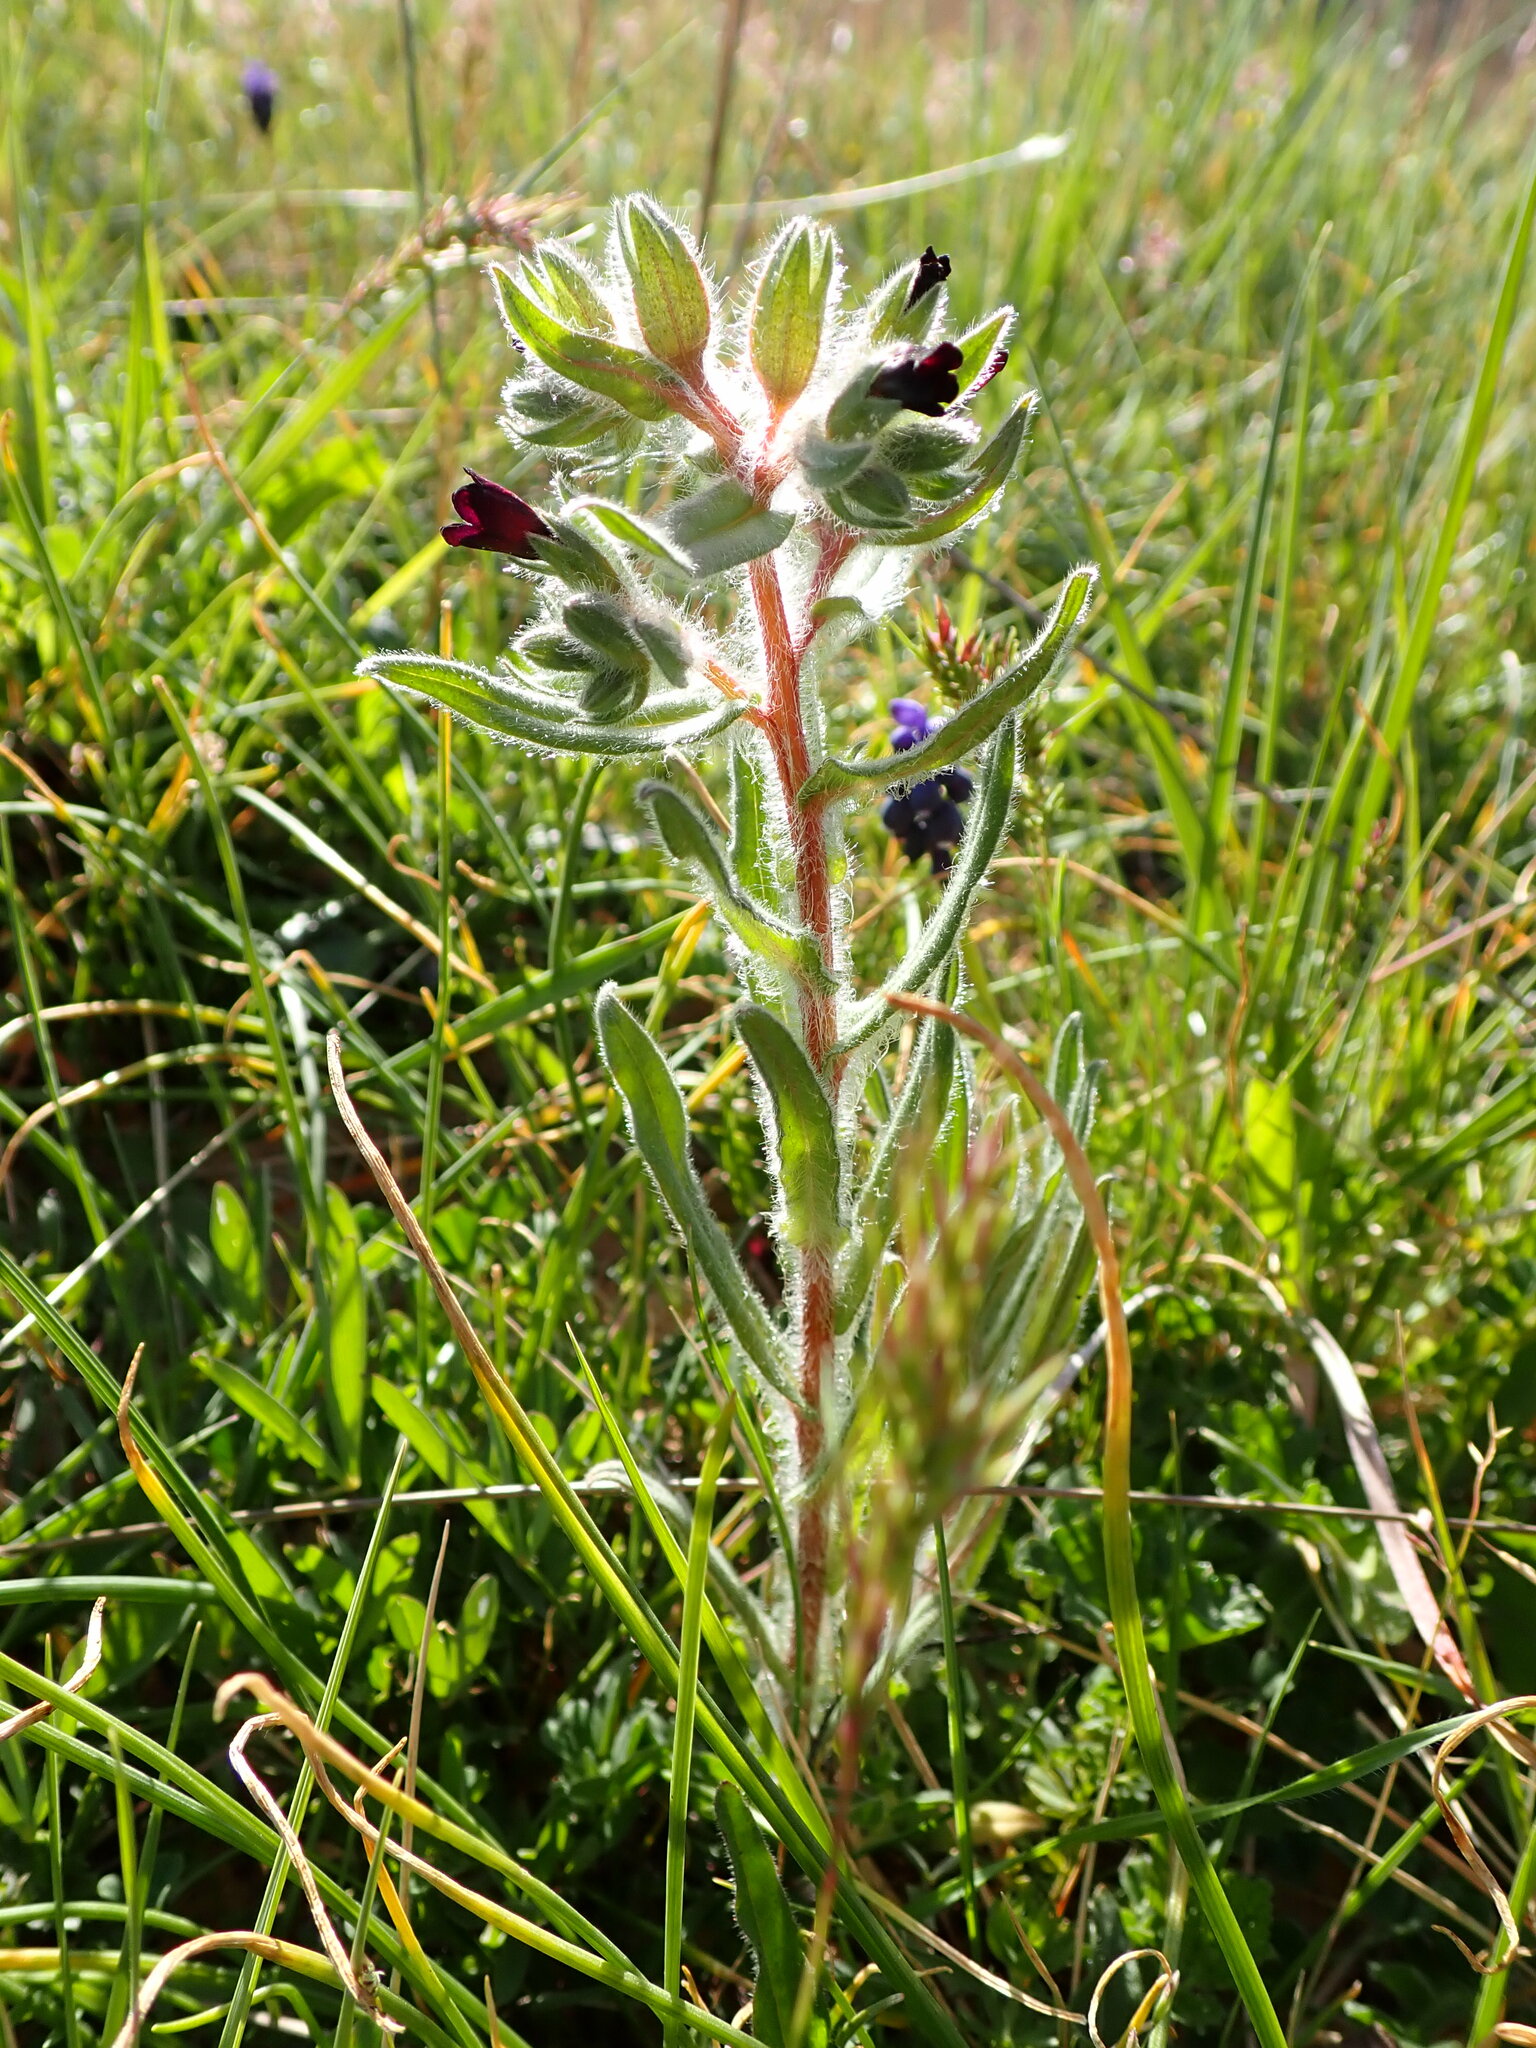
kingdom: Plantae
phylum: Tracheophyta
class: Magnoliopsida
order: Boraginales
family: Boraginaceae
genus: Nonea
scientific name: Nonea pulla
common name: Brown nonea
